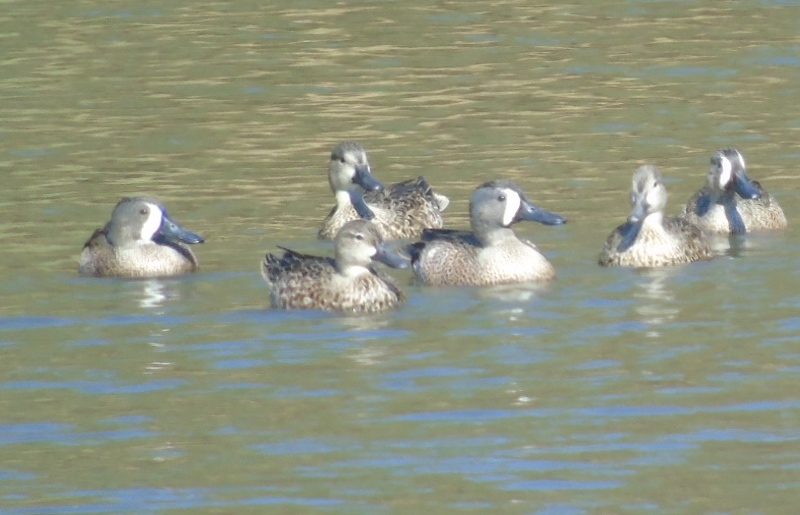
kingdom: Animalia
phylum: Chordata
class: Aves
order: Anseriformes
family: Anatidae
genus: Spatula
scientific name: Spatula discors
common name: Blue-winged teal
